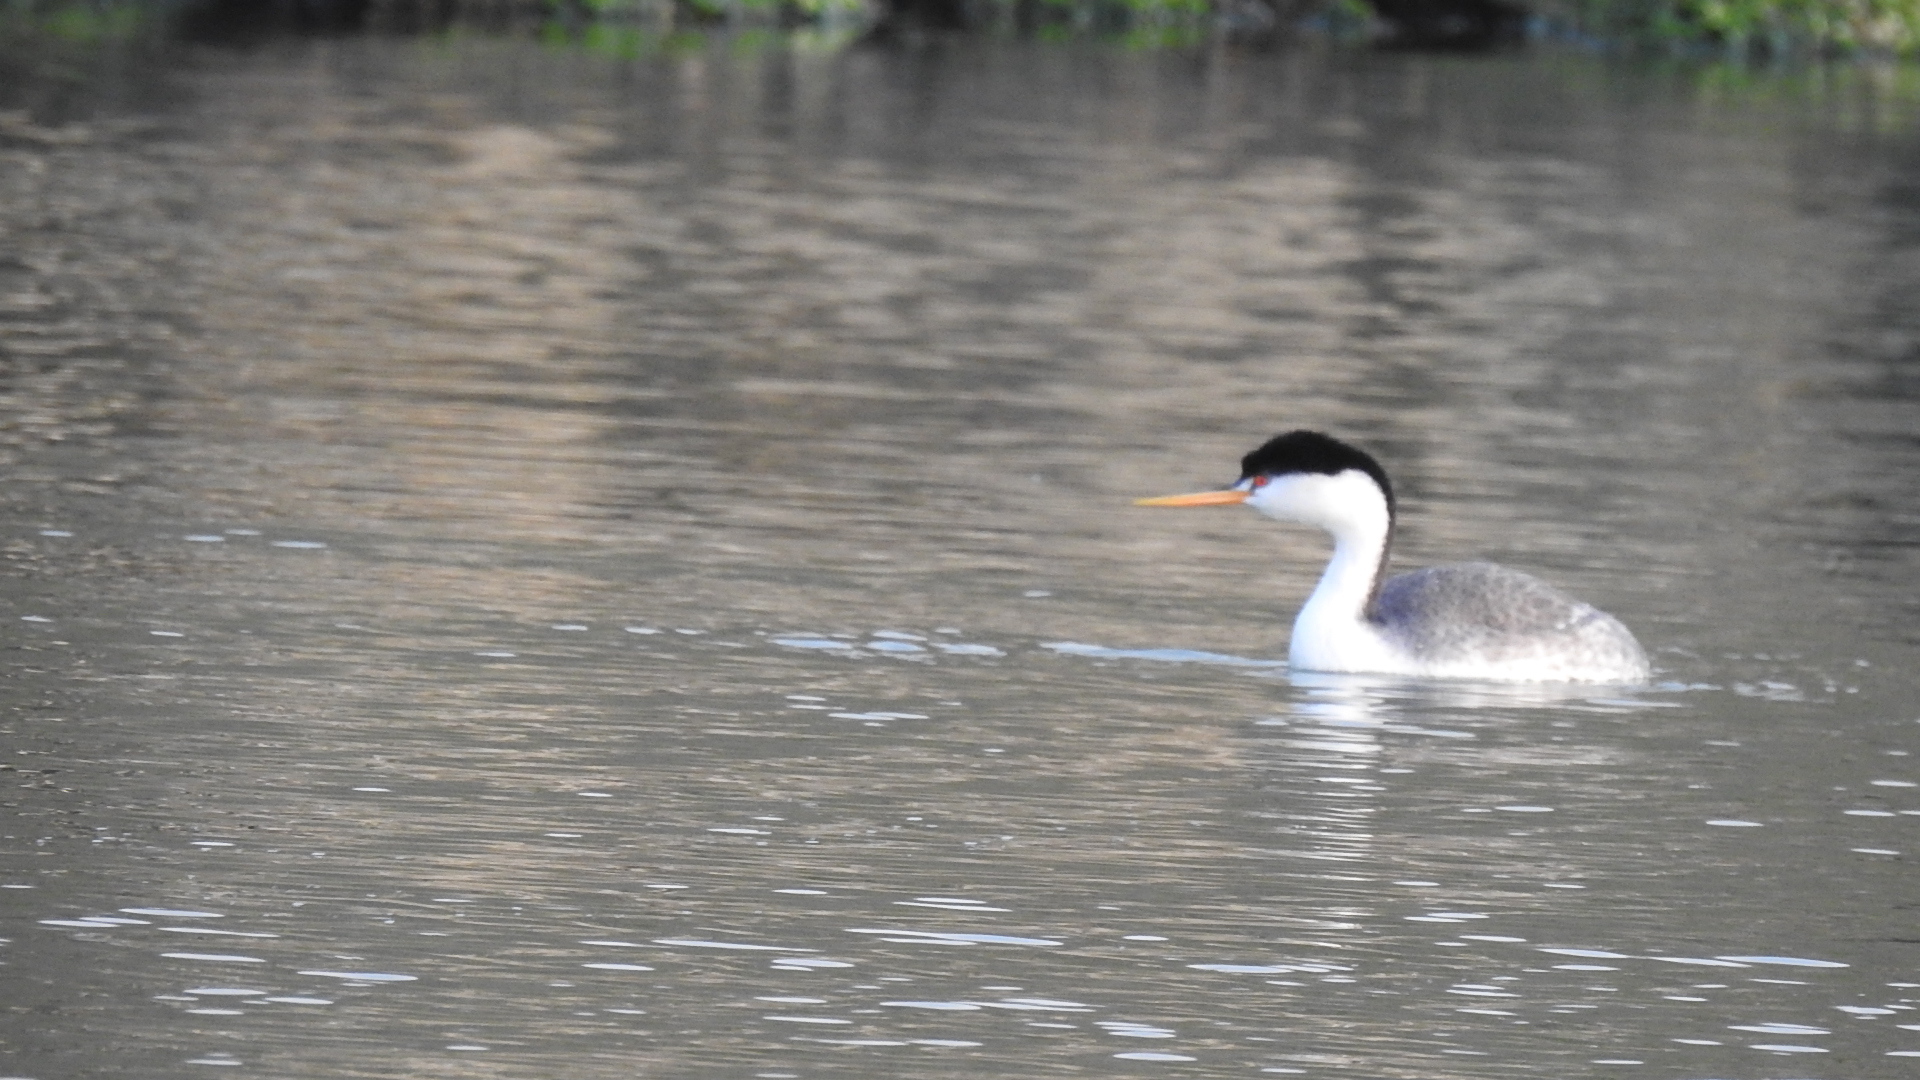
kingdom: Animalia
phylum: Chordata
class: Aves
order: Podicipediformes
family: Podicipedidae
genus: Aechmophorus
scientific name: Aechmophorus clarkii
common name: Clark's grebe
